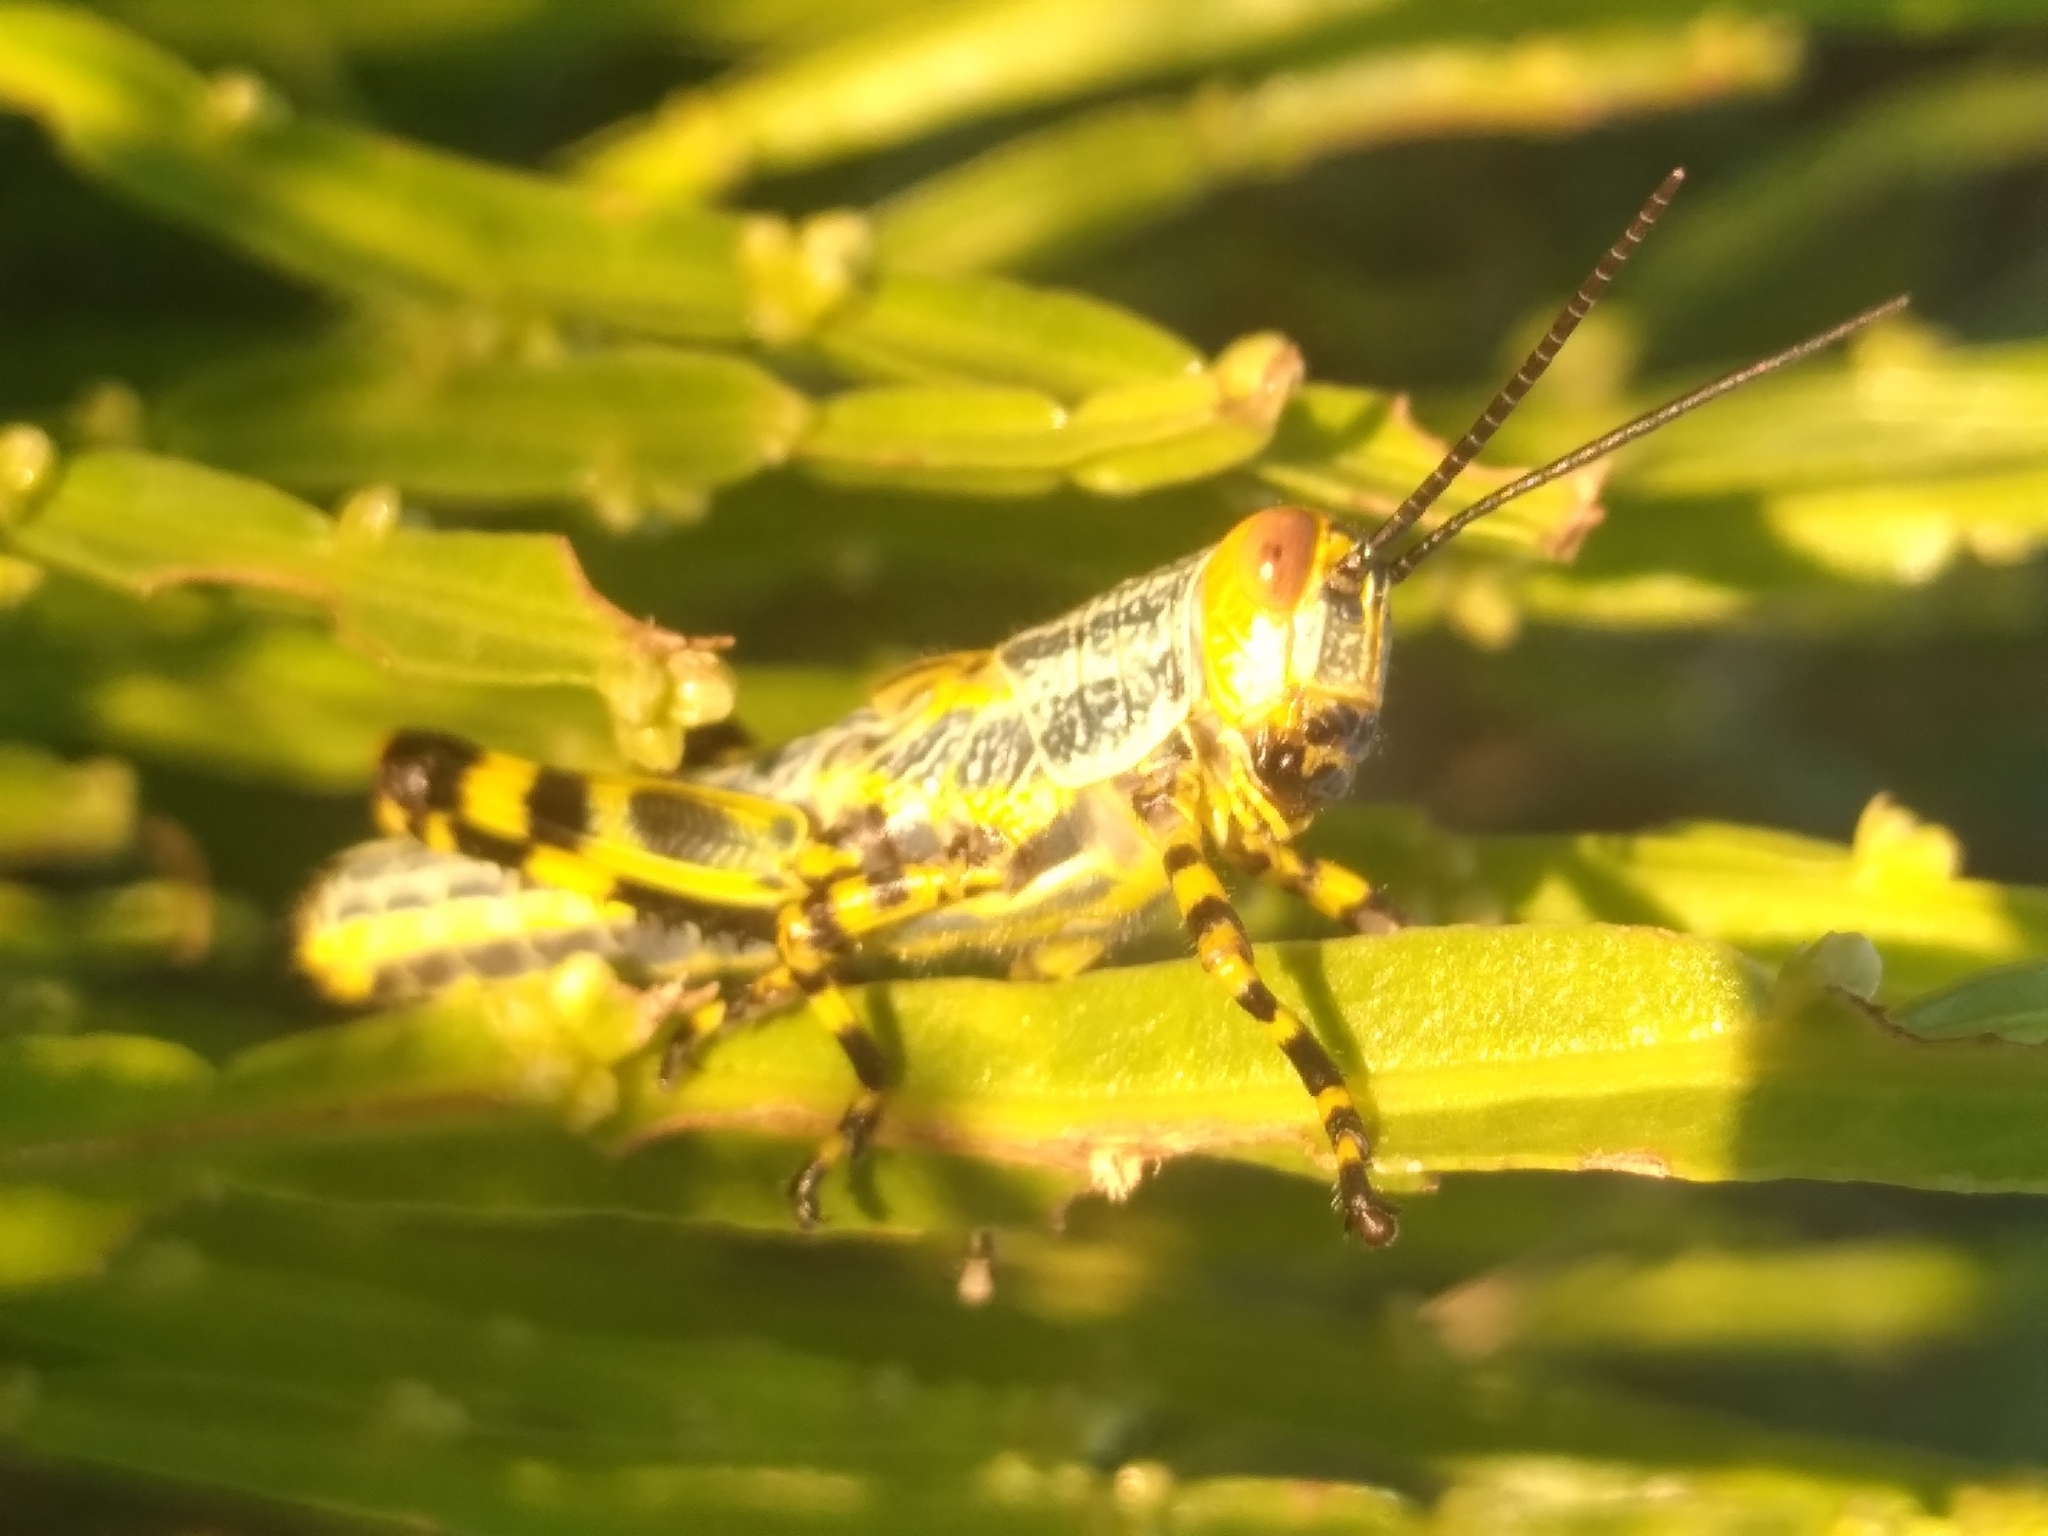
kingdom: Animalia
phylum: Arthropoda
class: Insecta
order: Orthoptera
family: Romaleidae
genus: Zoniopoda
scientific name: Zoniopoda tarsata
